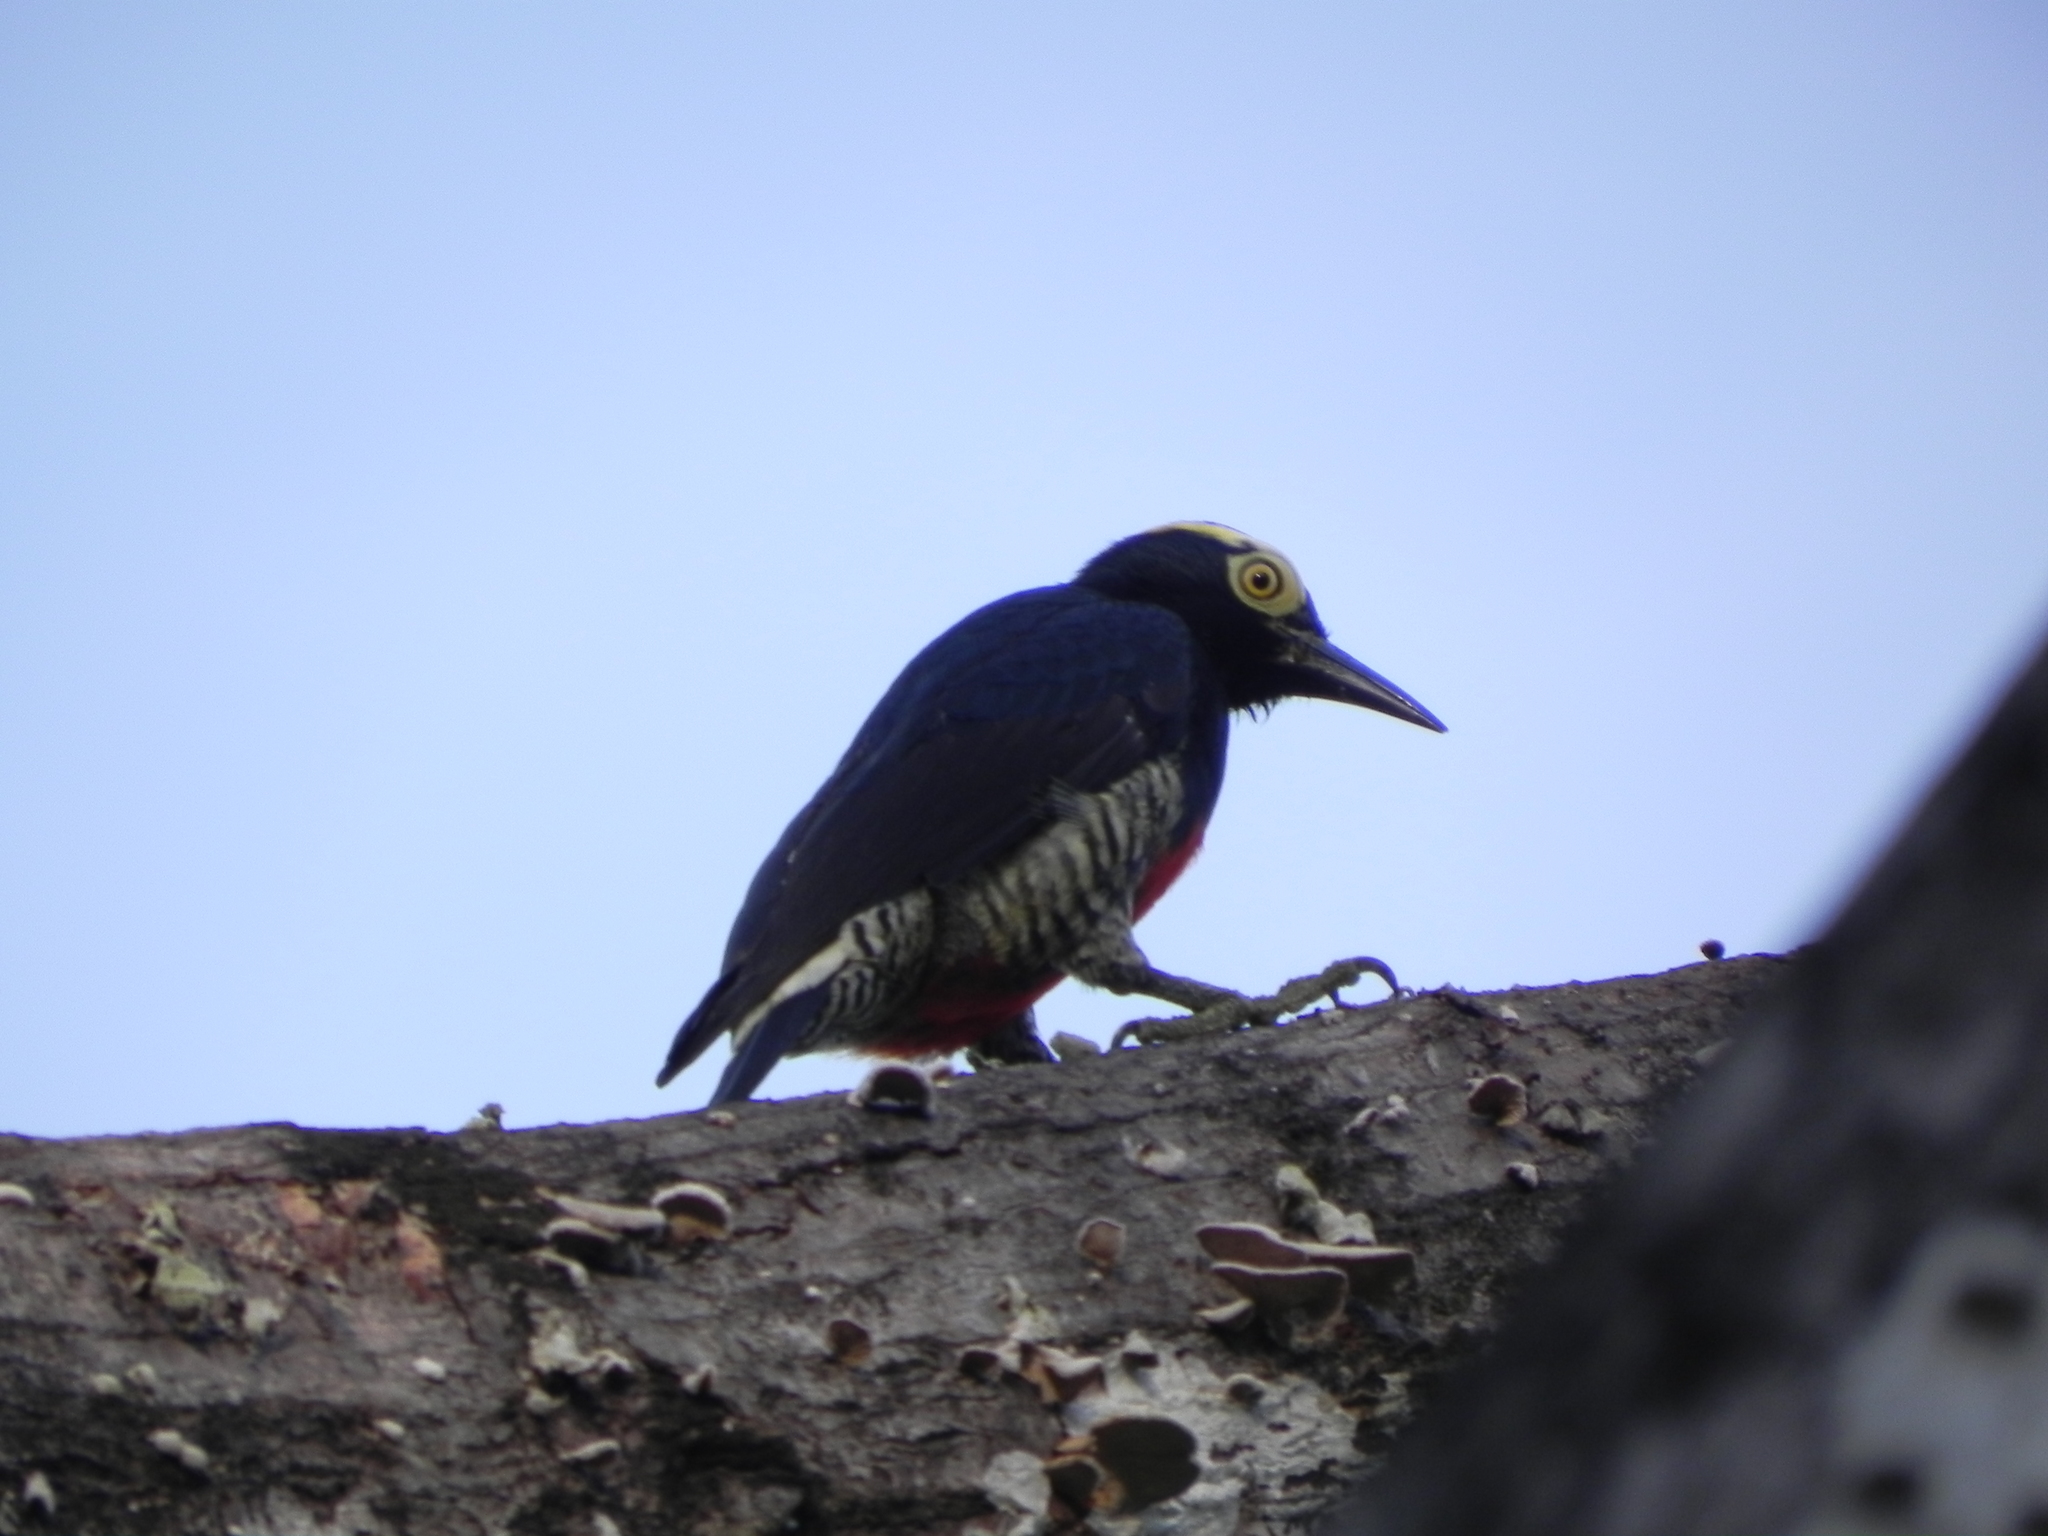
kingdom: Animalia
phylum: Chordata
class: Aves
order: Piciformes
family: Picidae
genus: Melanerpes
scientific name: Melanerpes cruentatus
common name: Yellow-tufted woodpecker
